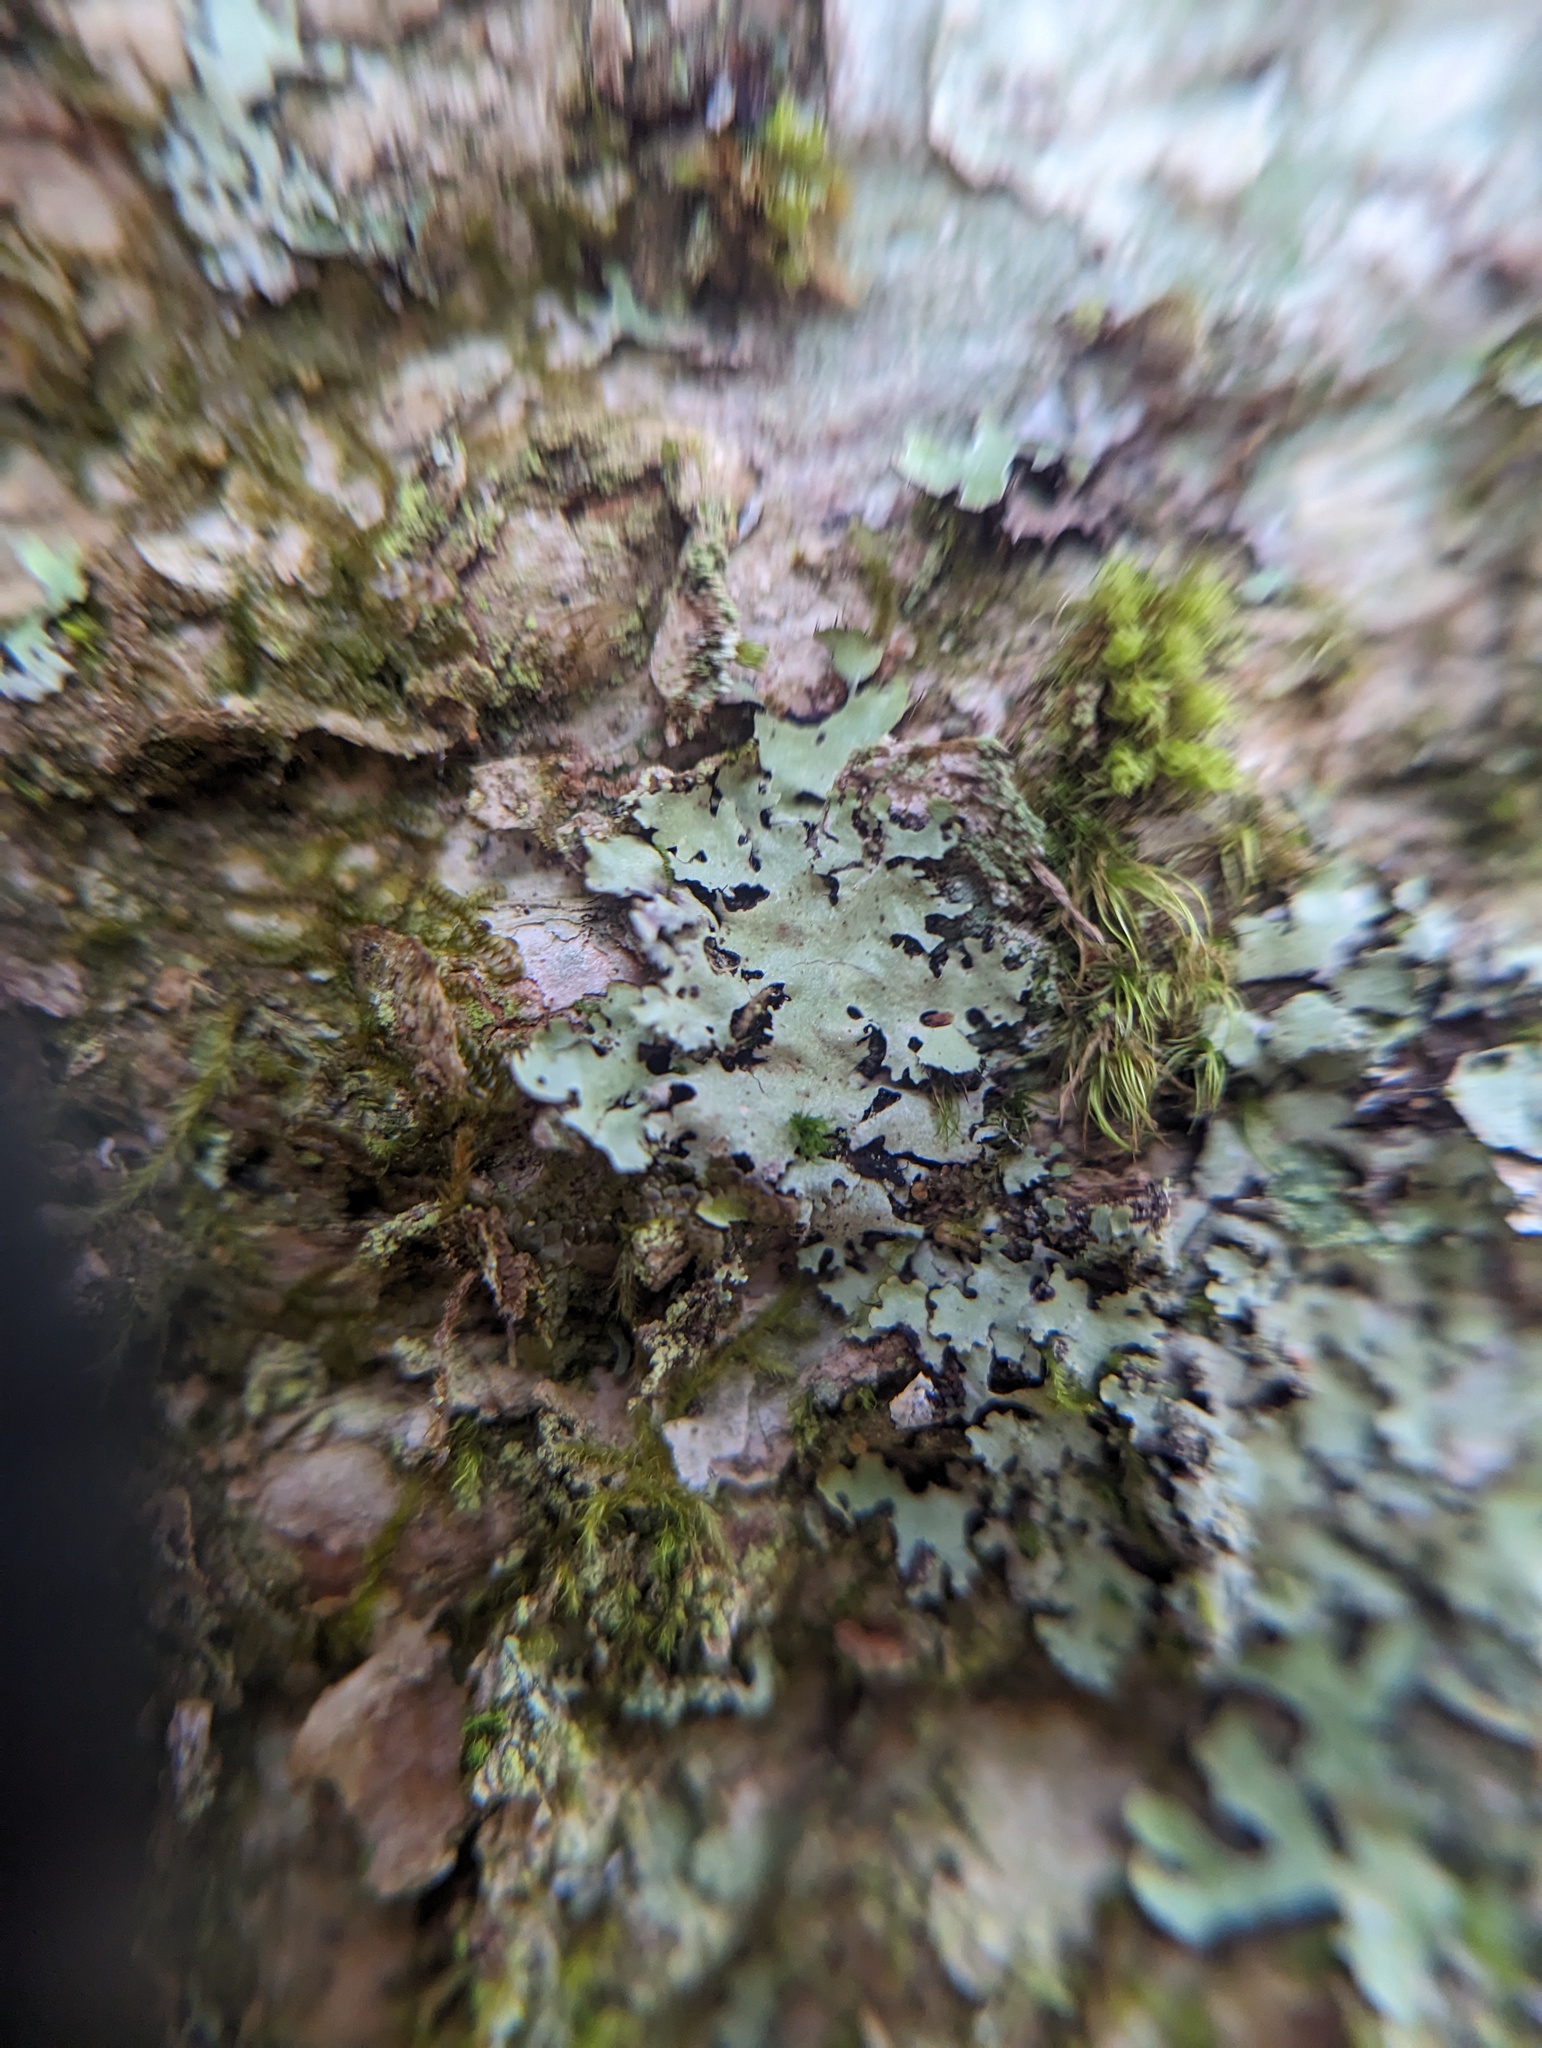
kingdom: Fungi
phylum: Ascomycota
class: Lecanoromycetes
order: Lecanorales
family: Parmeliaceae
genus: Hypotrachyna
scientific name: Hypotrachyna afrorevoluta
